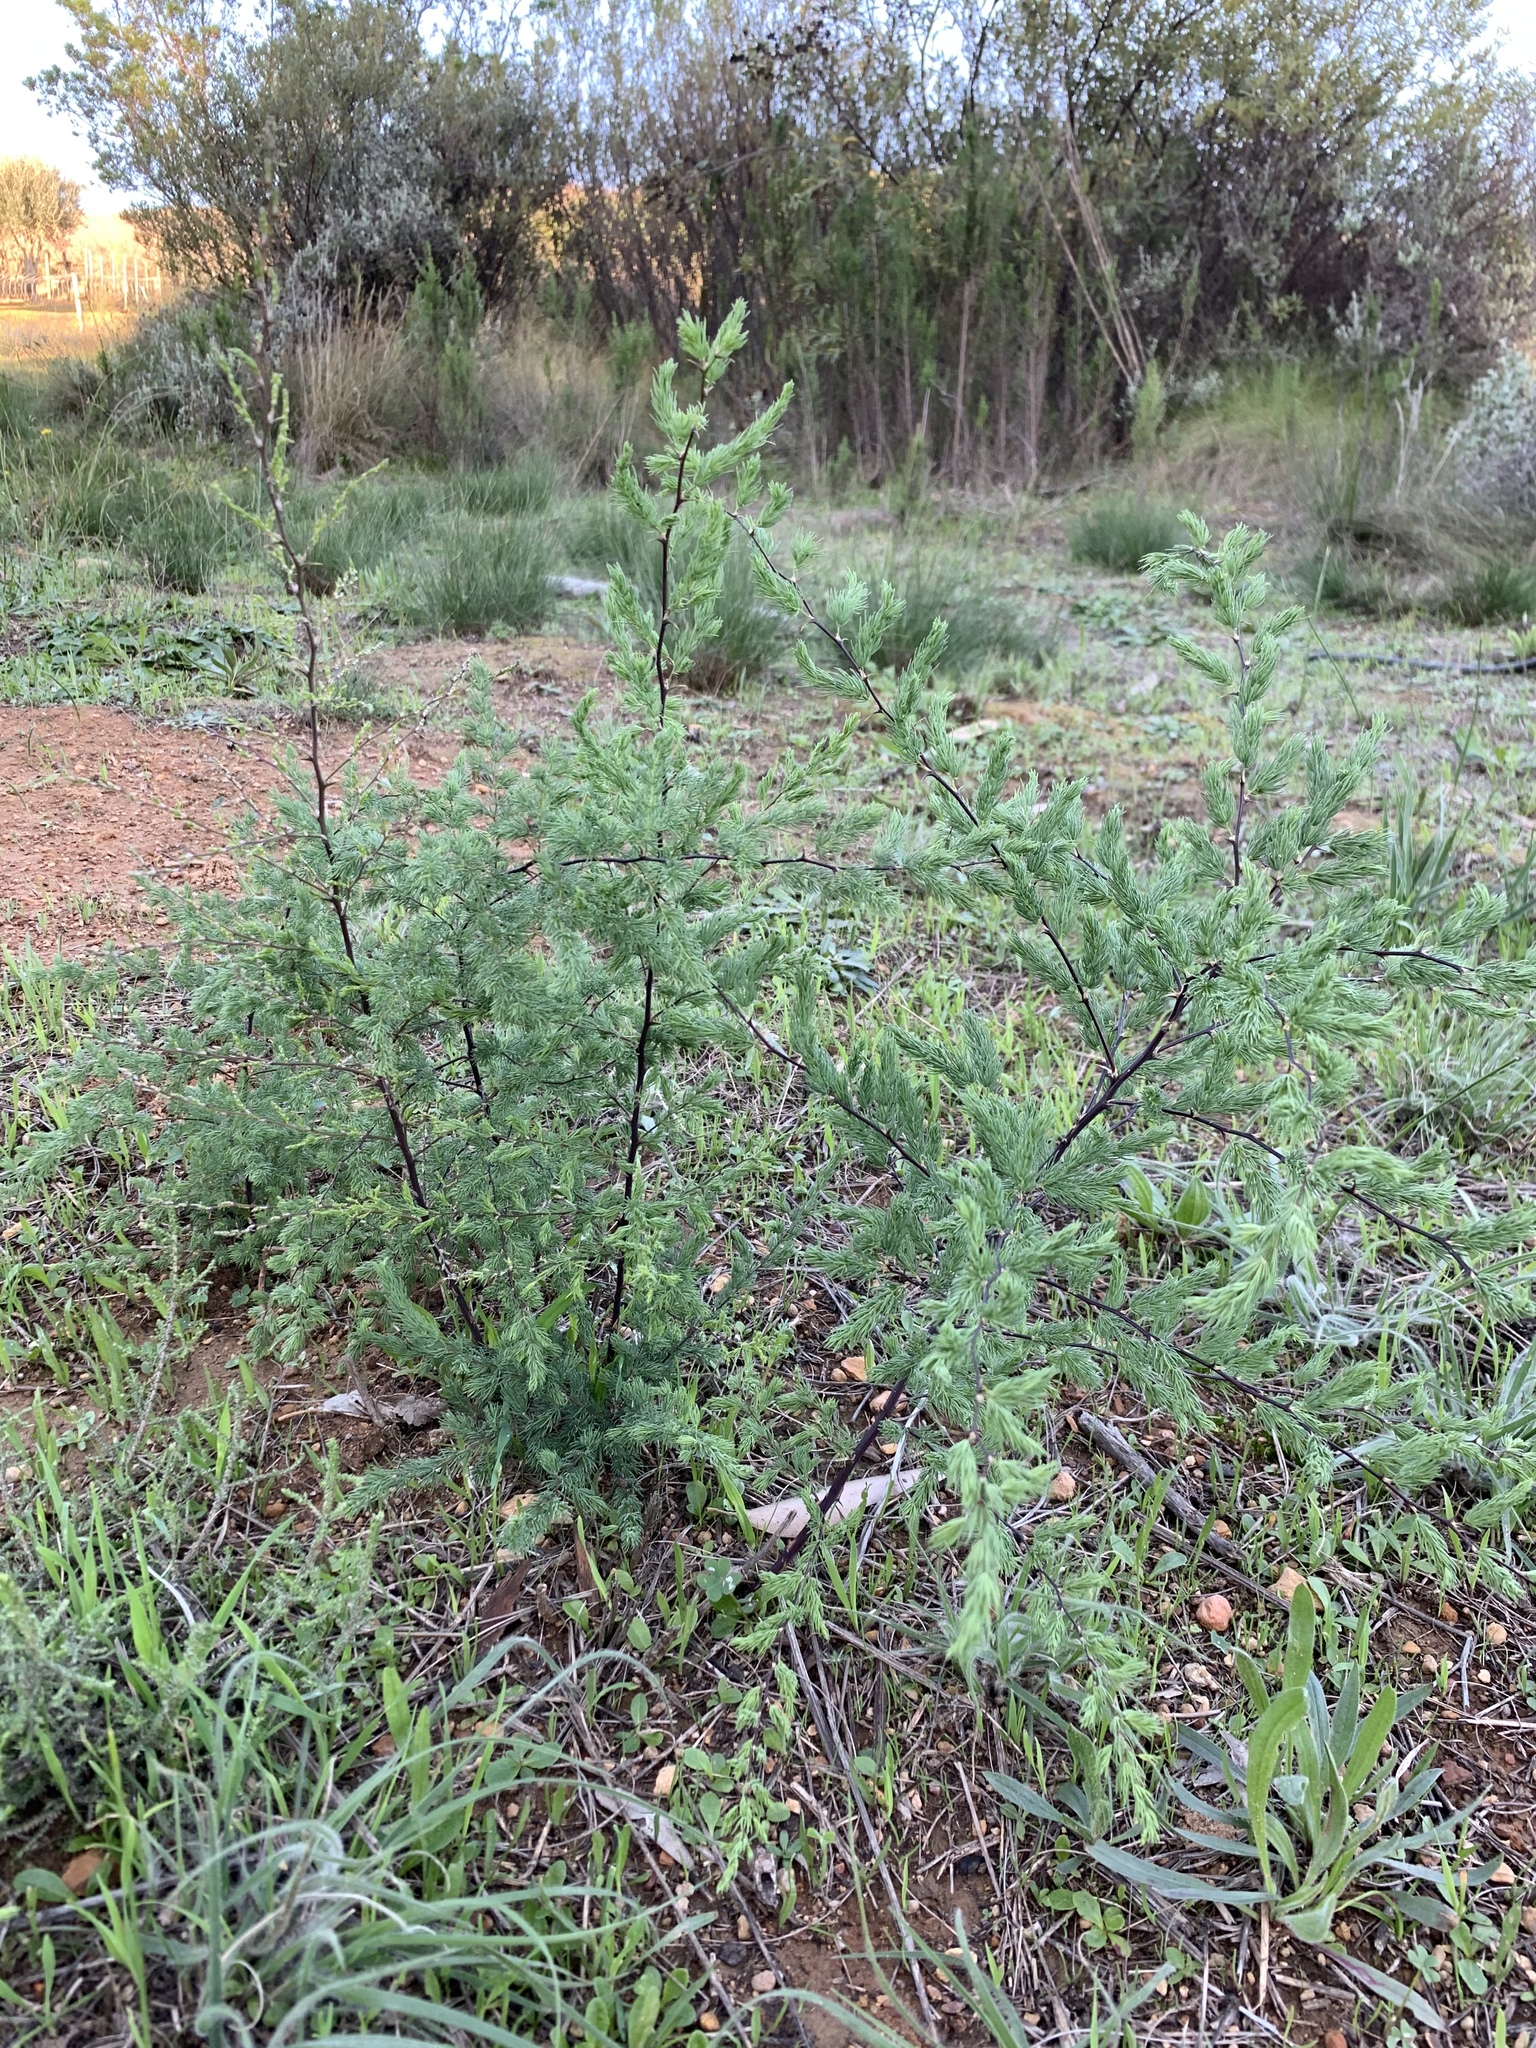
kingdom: Plantae
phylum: Tracheophyta
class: Liliopsida
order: Asparagales
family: Asparagaceae
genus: Asparagus
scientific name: Asparagus rubicundus
